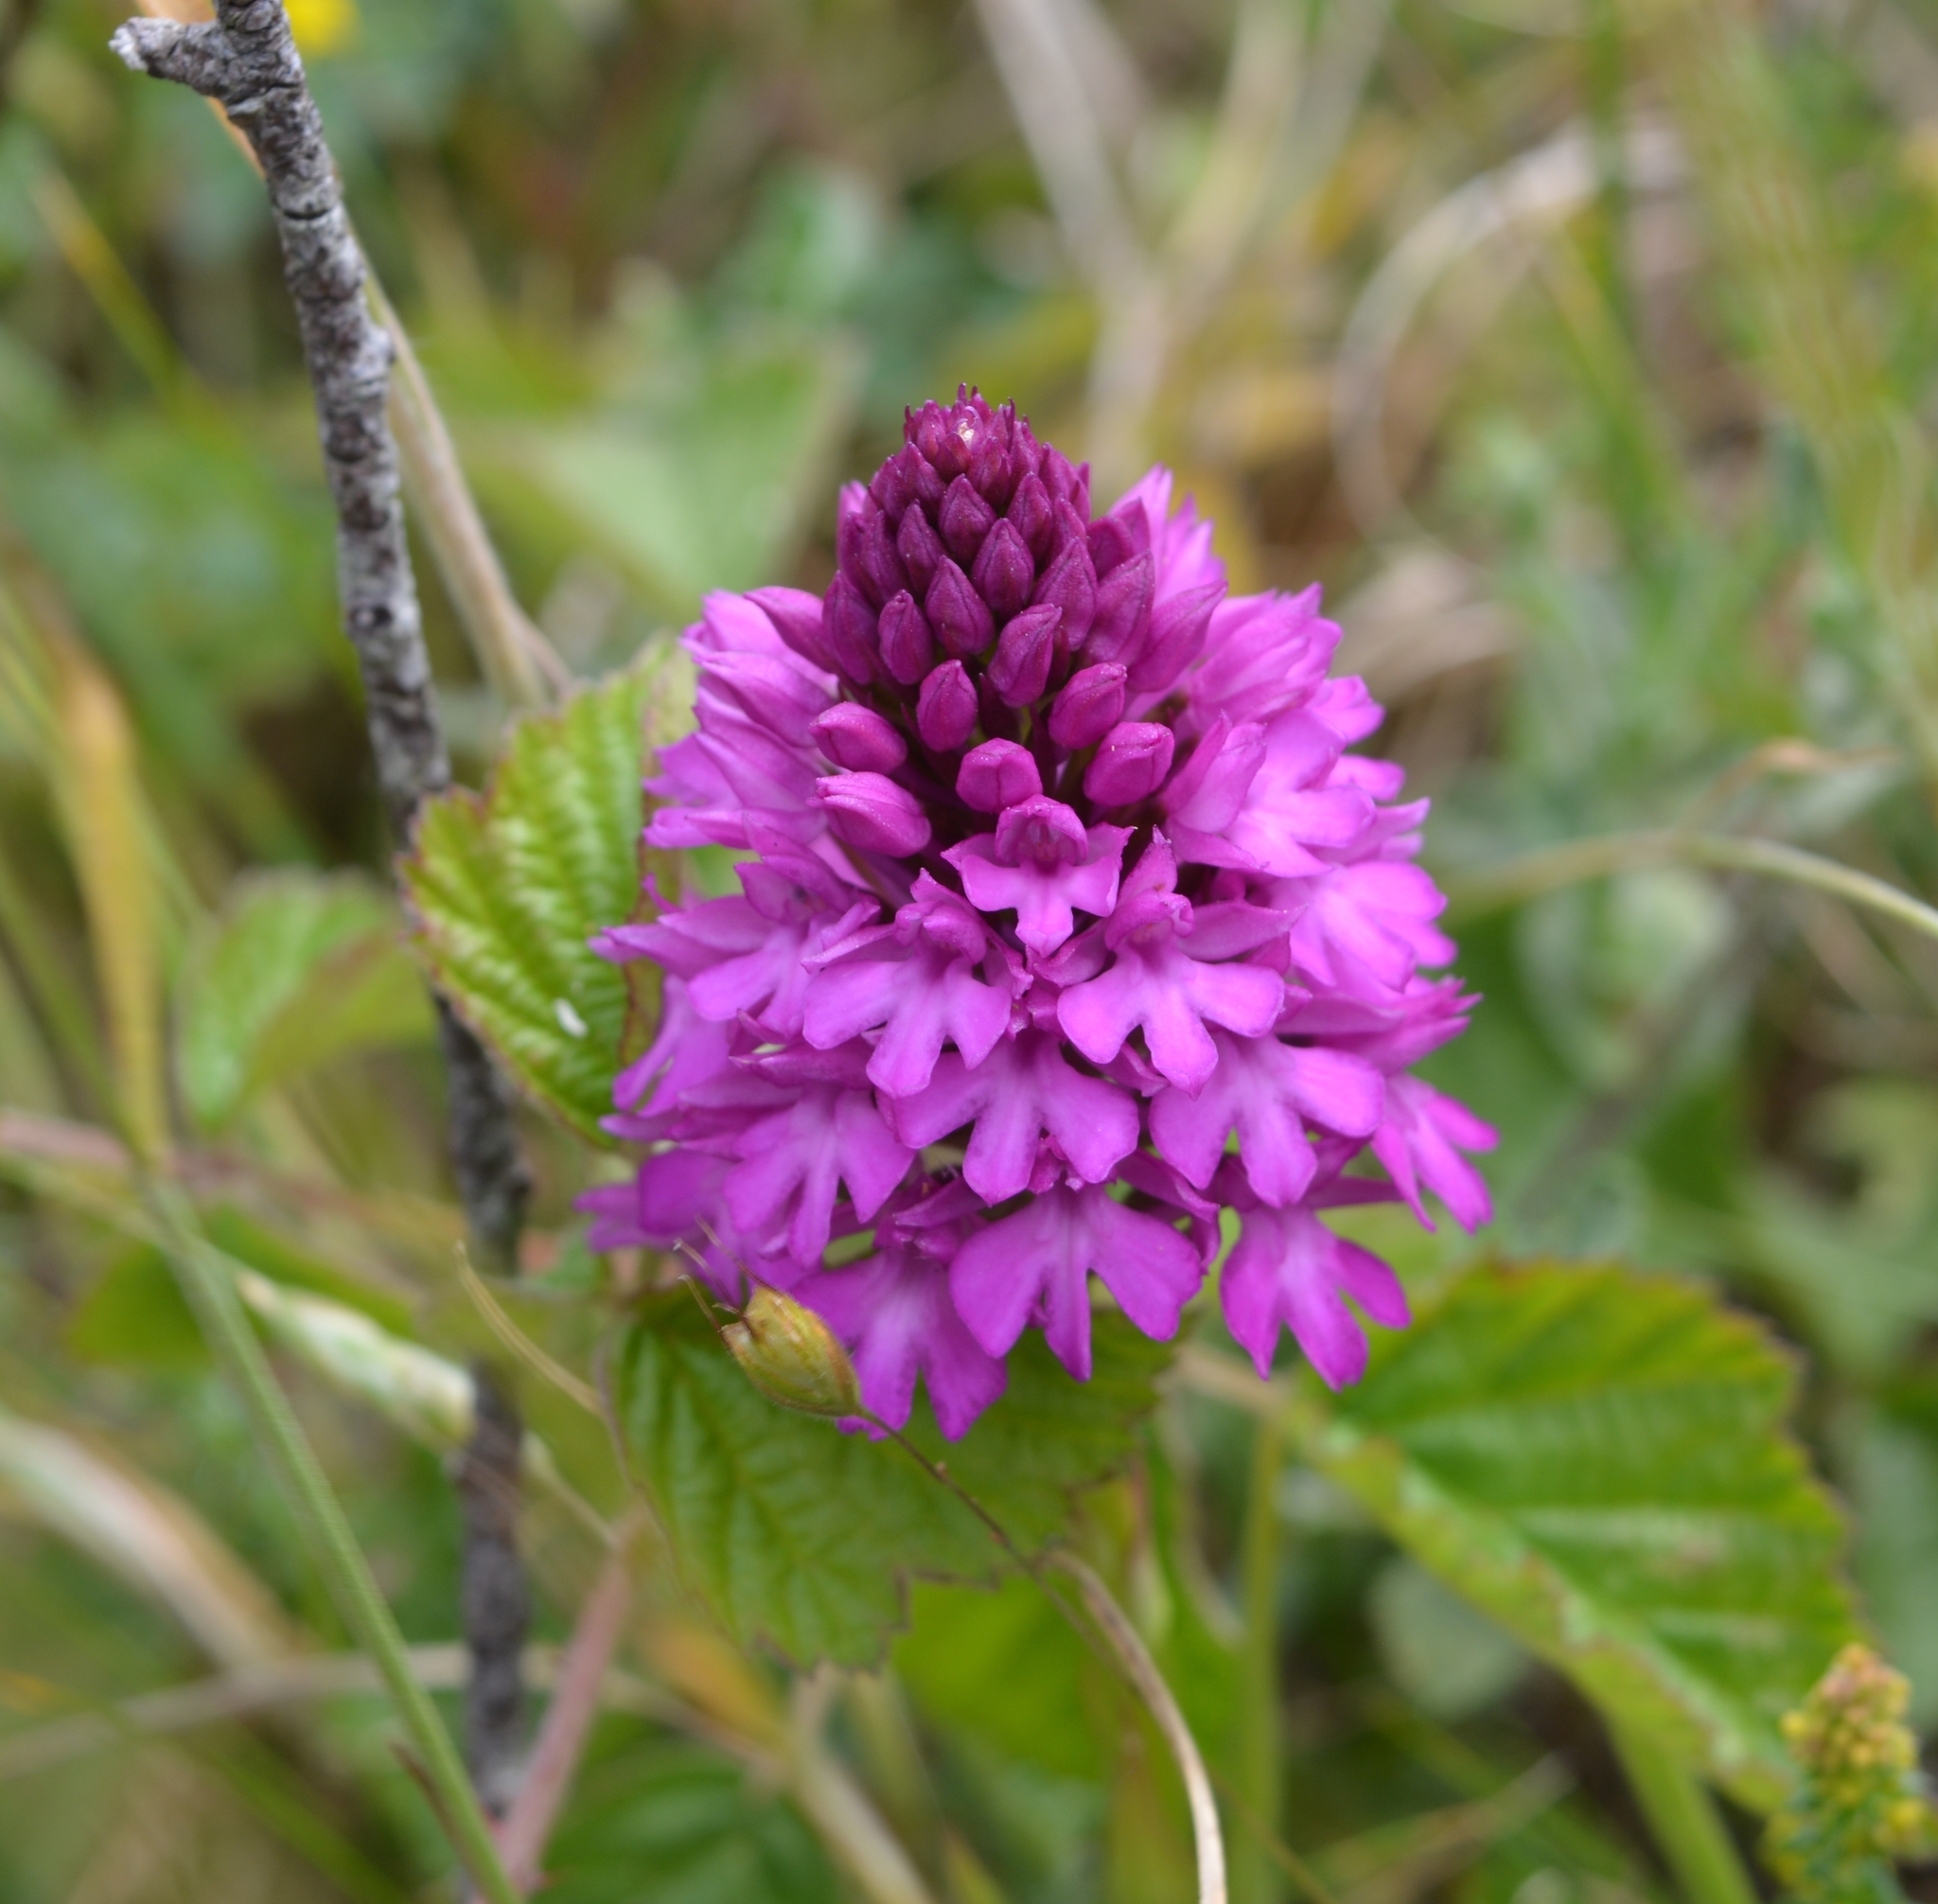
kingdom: Plantae
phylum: Tracheophyta
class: Liliopsida
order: Asparagales
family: Orchidaceae
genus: Anacamptis
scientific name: Anacamptis pyramidalis
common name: Pyramidal orchid
